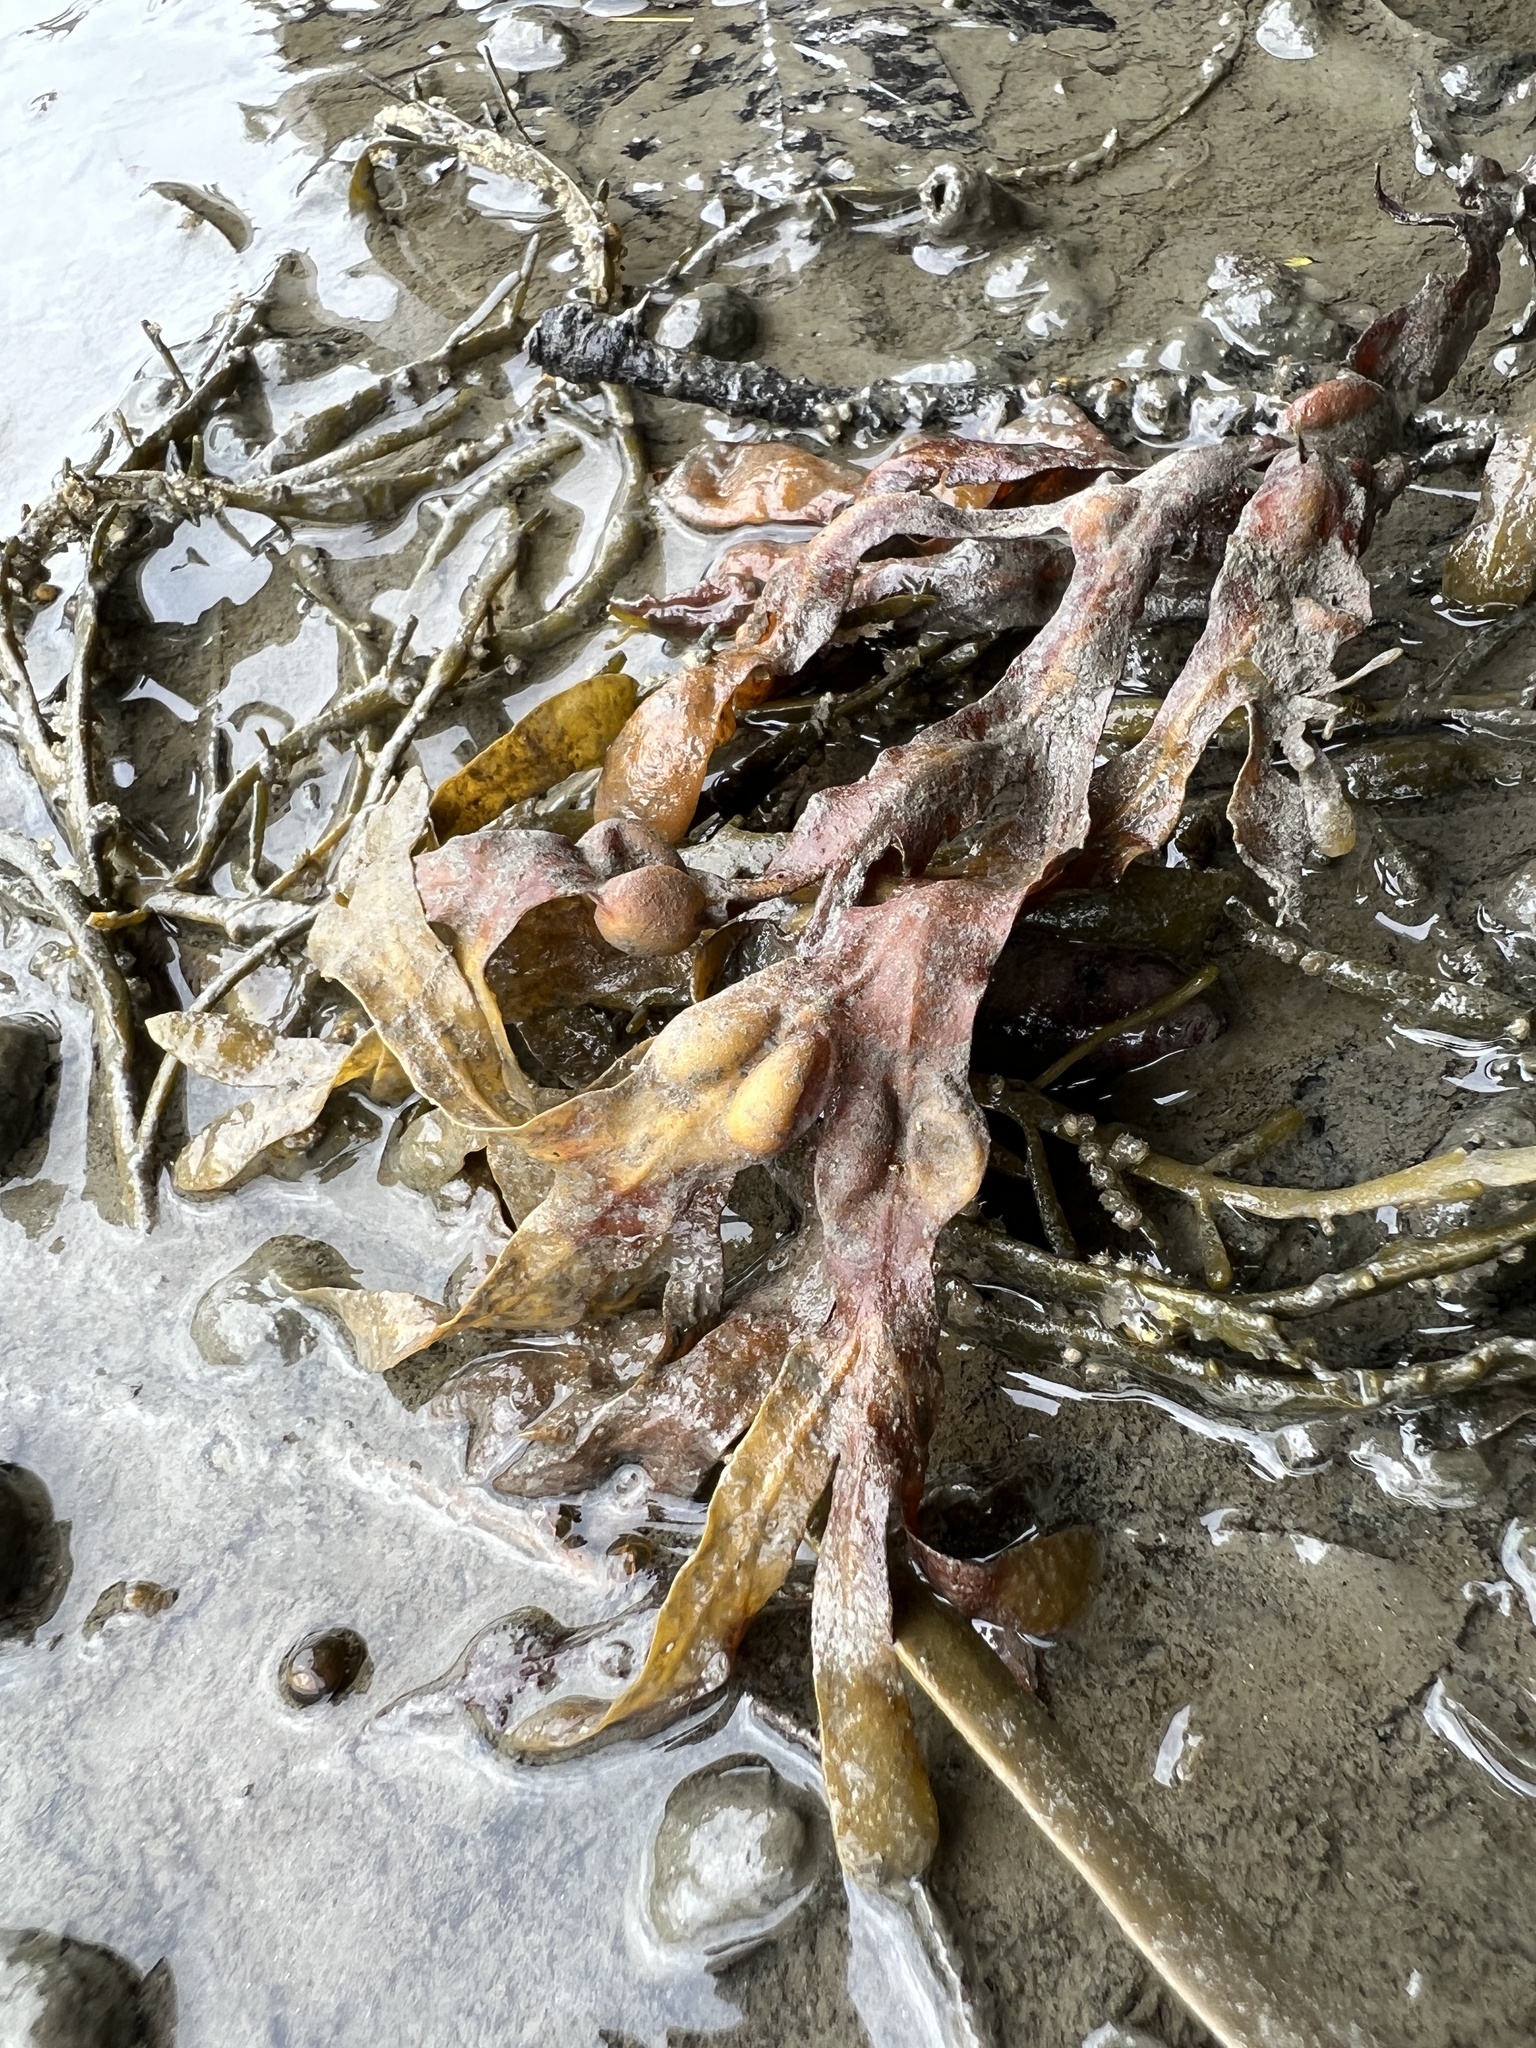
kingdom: Chromista
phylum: Ochrophyta
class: Phaeophyceae
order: Fucales
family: Fucaceae
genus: Fucus
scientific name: Fucus vesiculosus
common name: Bladder wrack
